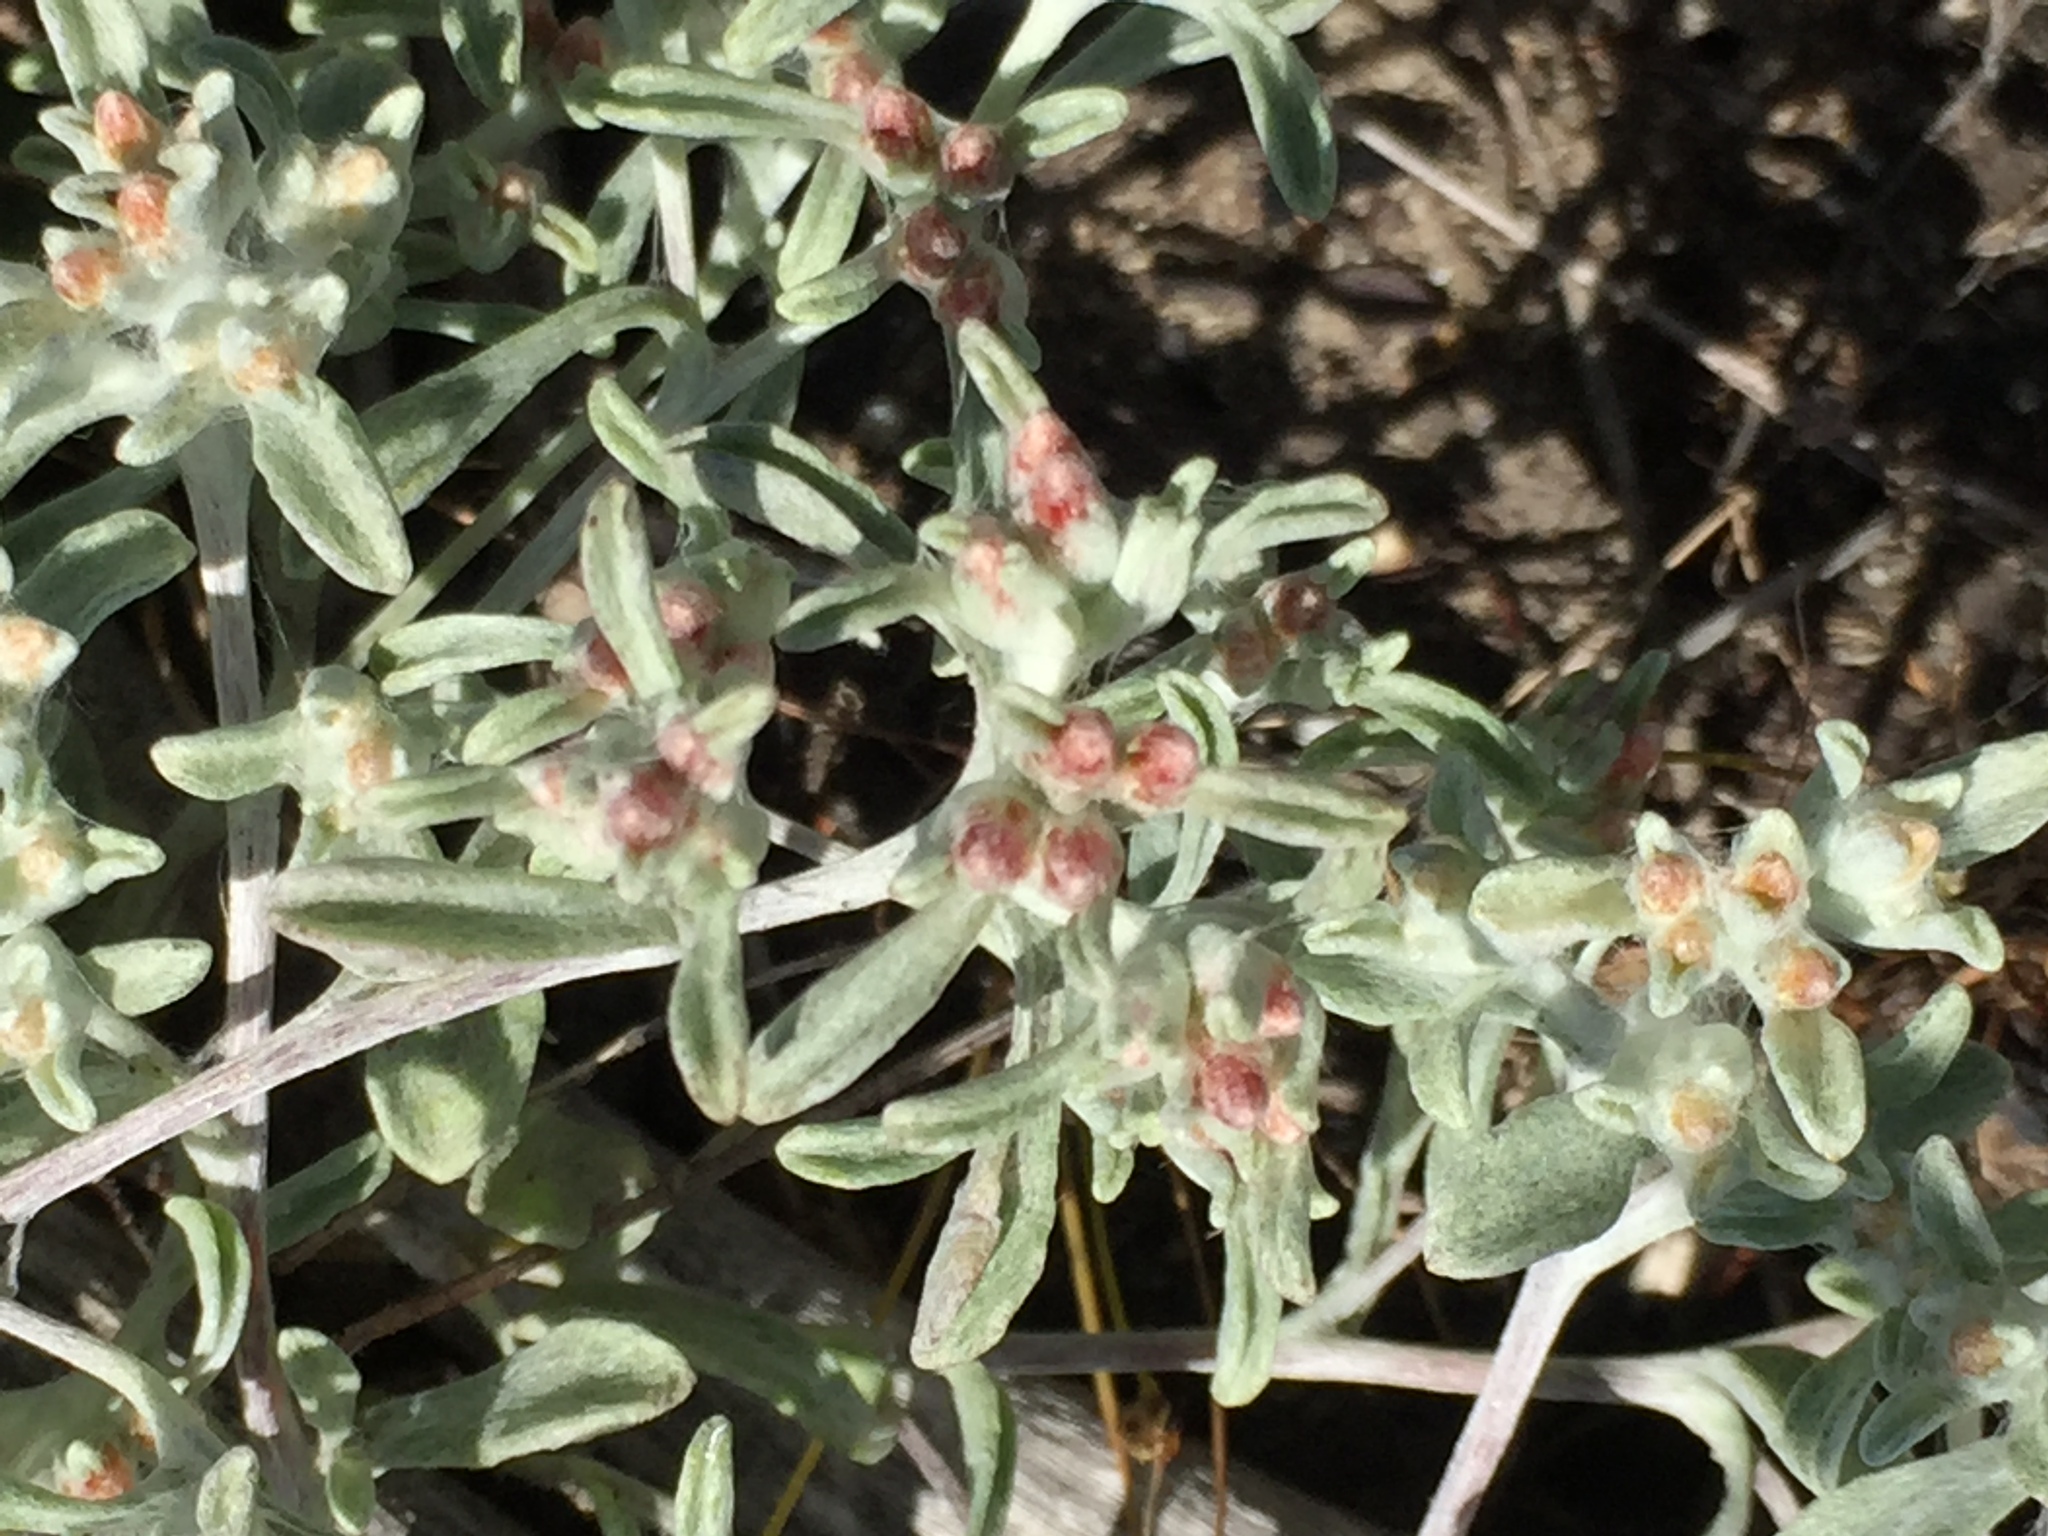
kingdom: Plantae
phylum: Tracheophyta
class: Magnoliopsida
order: Asterales
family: Asteraceae
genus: Helichrysum
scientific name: Helichrysum tinctum
